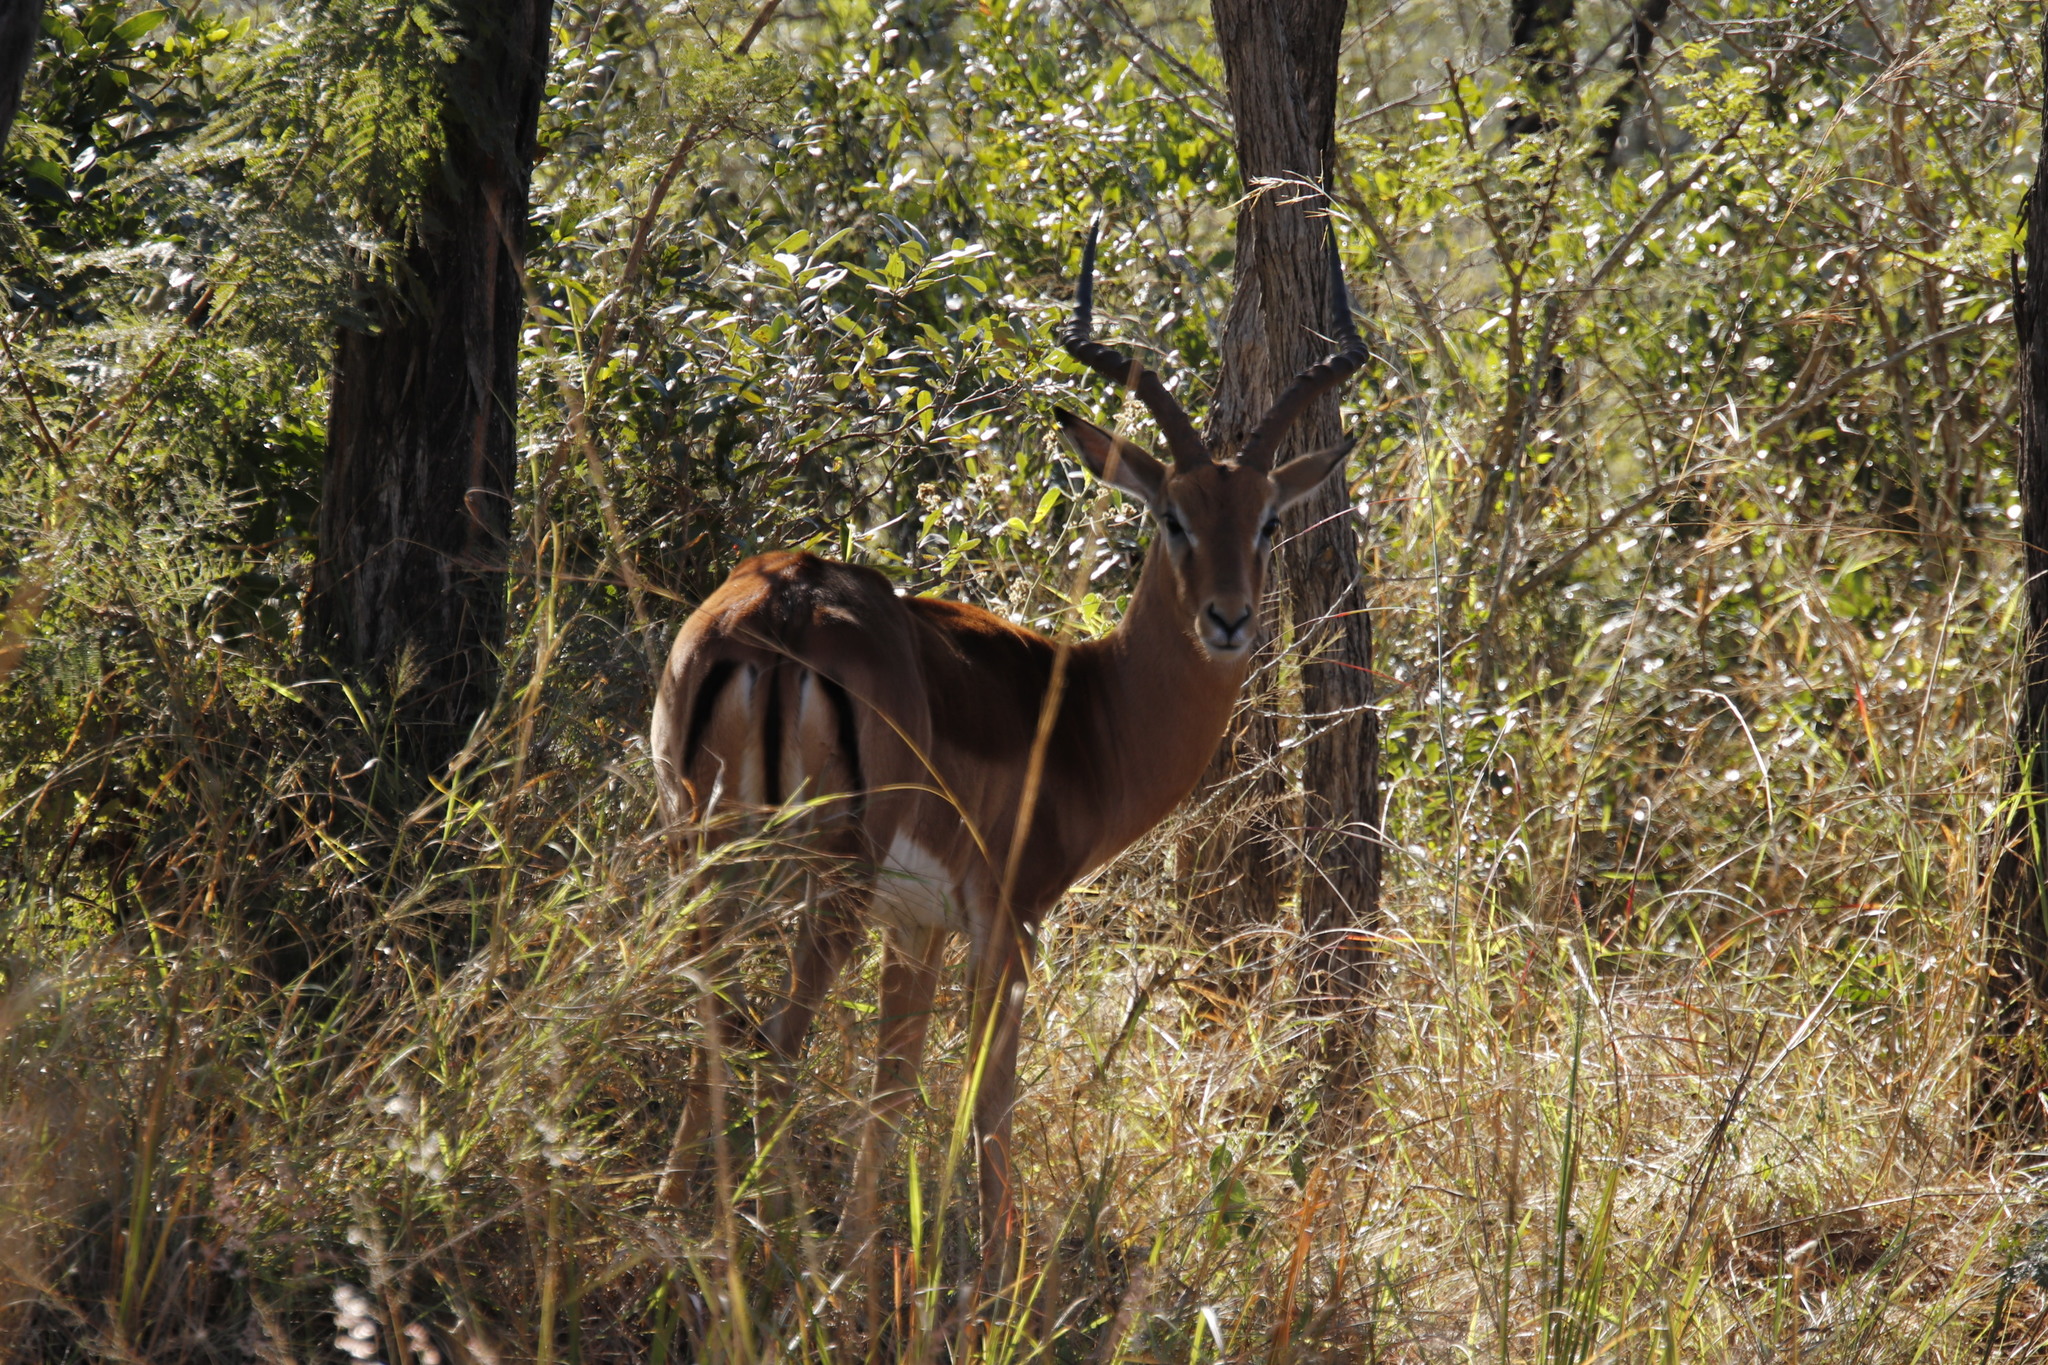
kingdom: Animalia
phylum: Chordata
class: Mammalia
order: Artiodactyla
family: Bovidae
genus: Aepyceros
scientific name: Aepyceros melampus
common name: Impala
